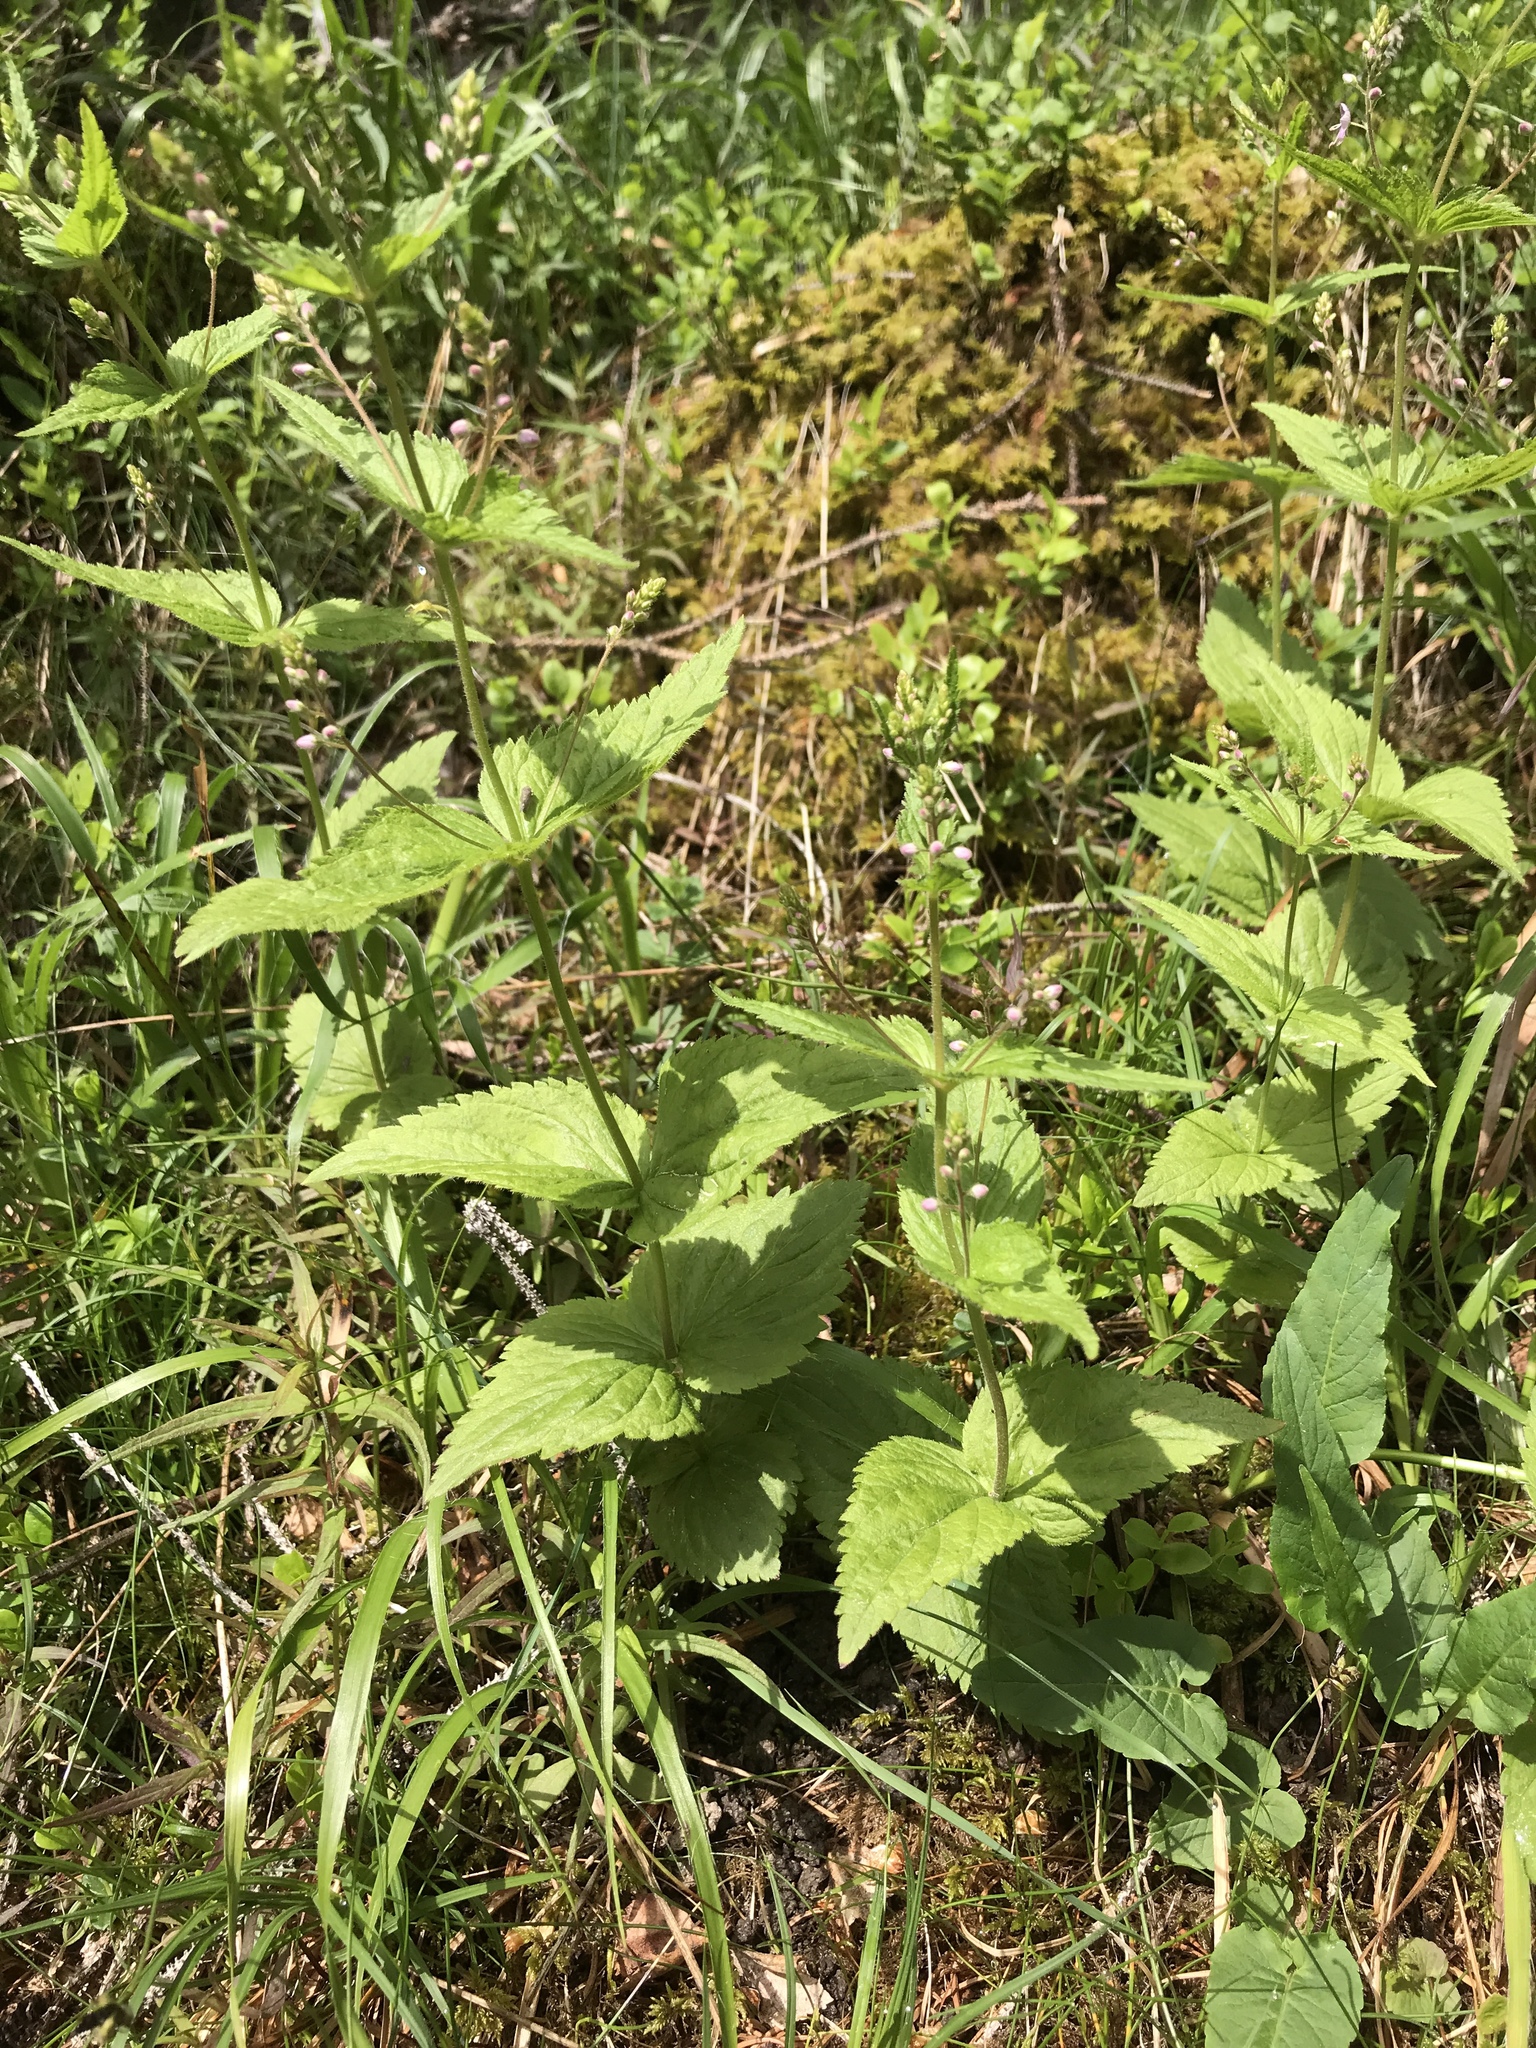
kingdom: Plantae
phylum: Tracheophyta
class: Magnoliopsida
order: Lamiales
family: Plantaginaceae
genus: Veronica
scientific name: Veronica urticifolia
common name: Nettle-leaf speedwell
